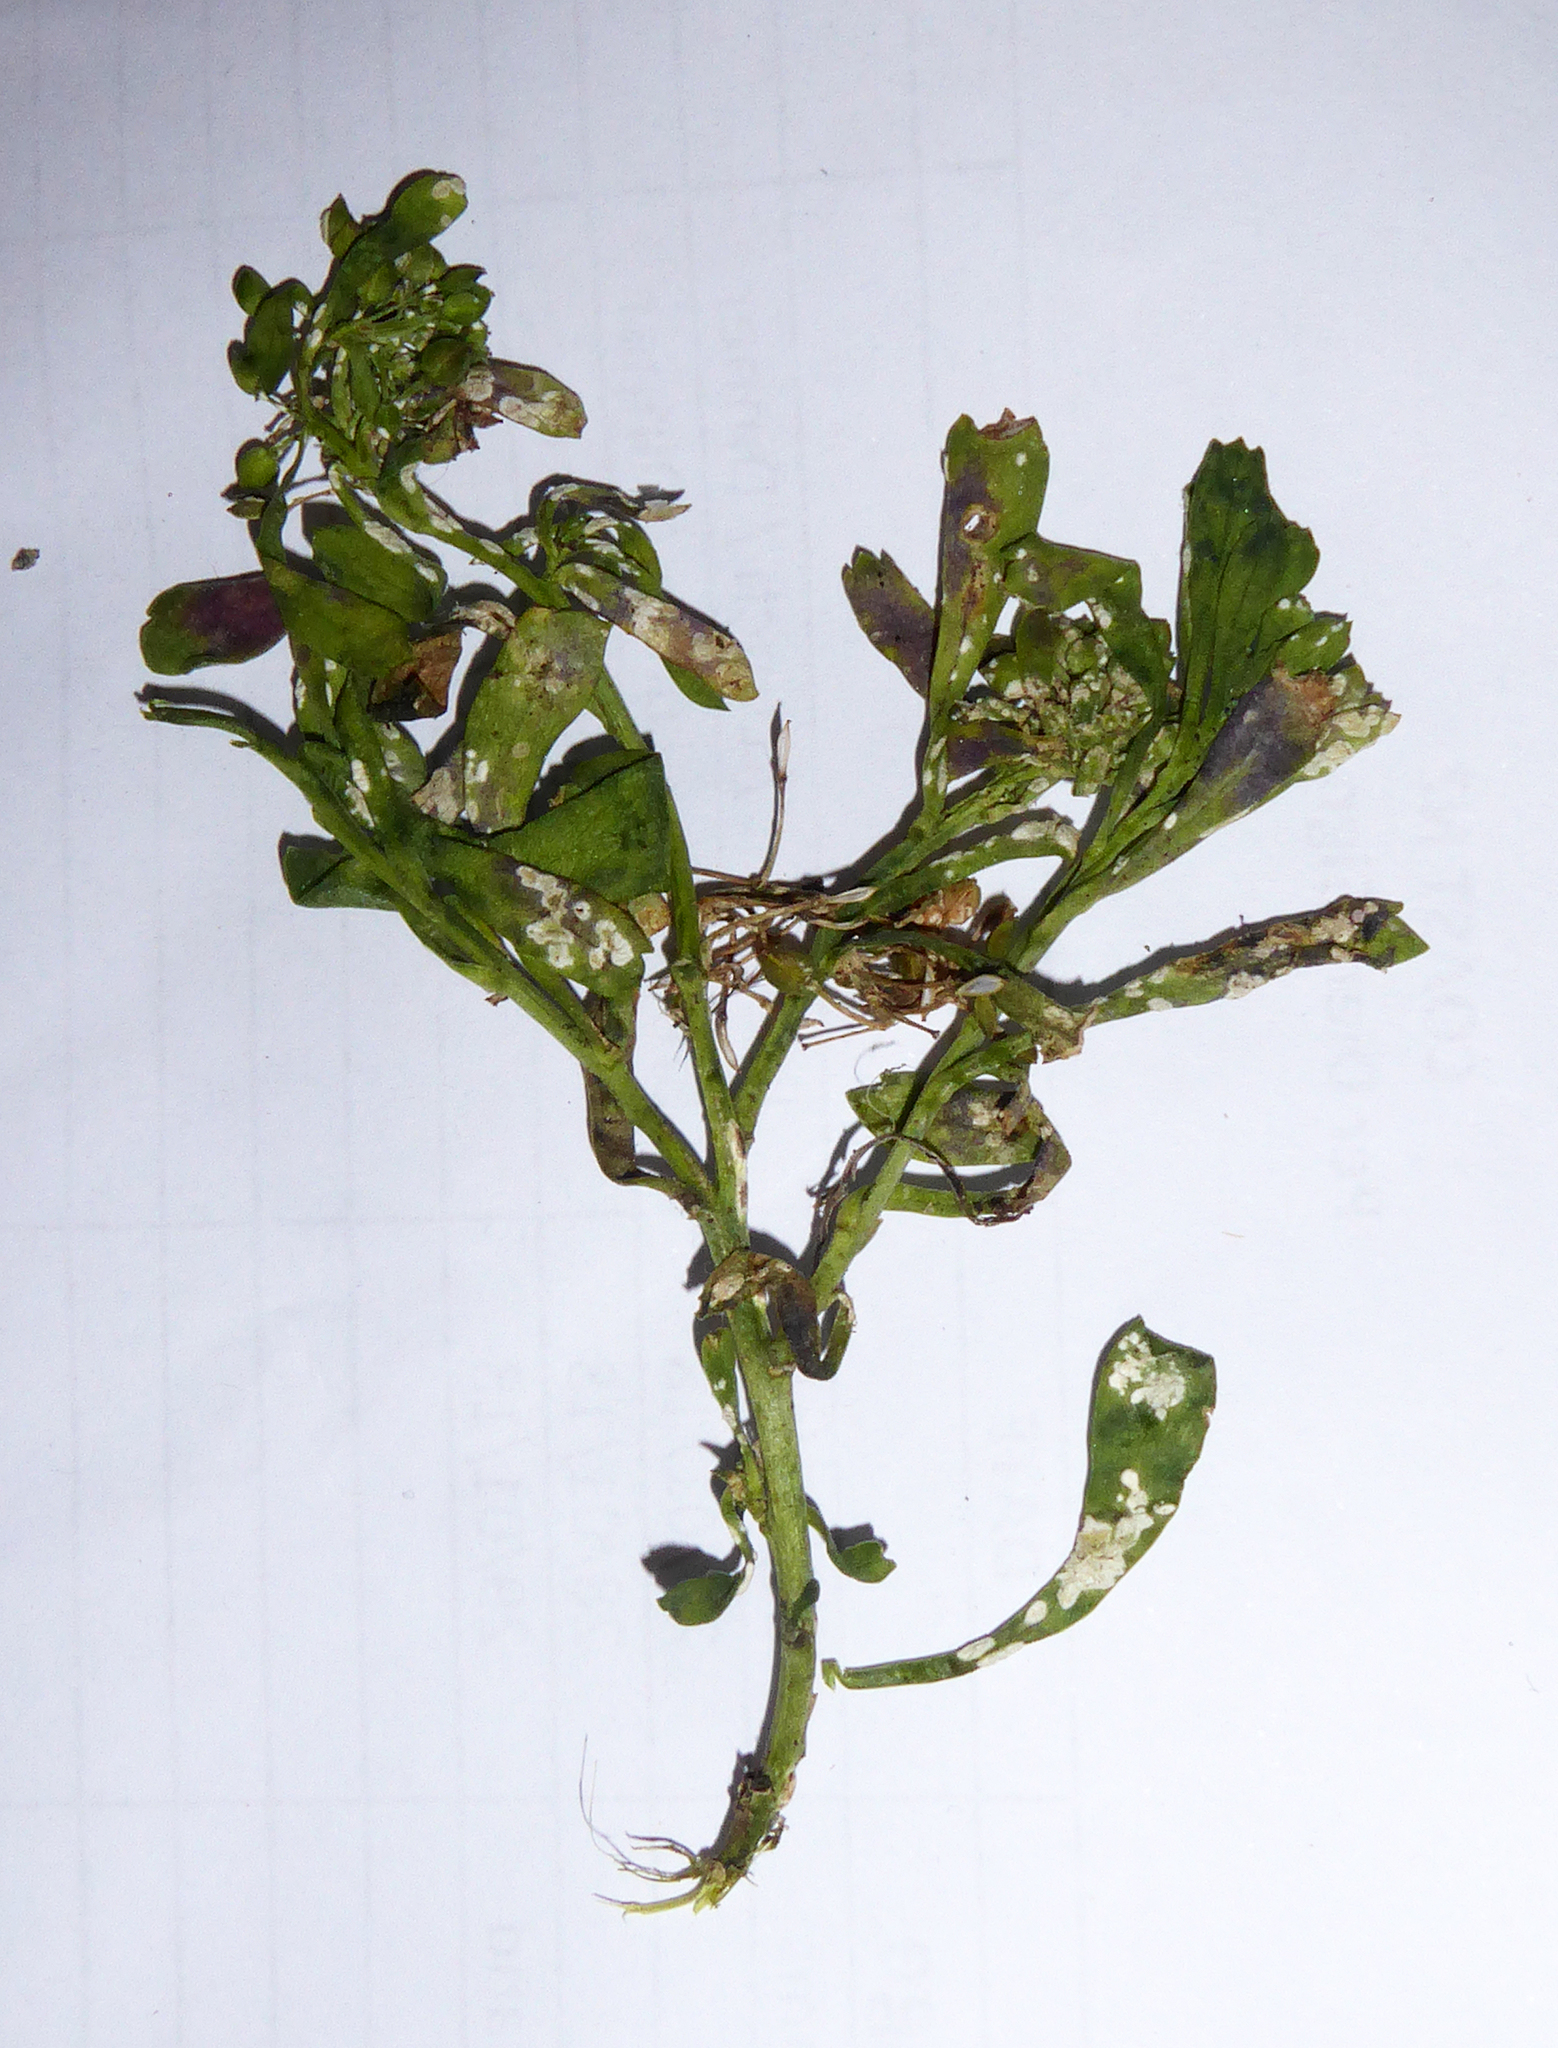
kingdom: Chromista
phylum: Oomycota
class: Peronosporea
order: Albuginales
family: Albuginaceae
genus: Albugo
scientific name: Albugo lepidii
